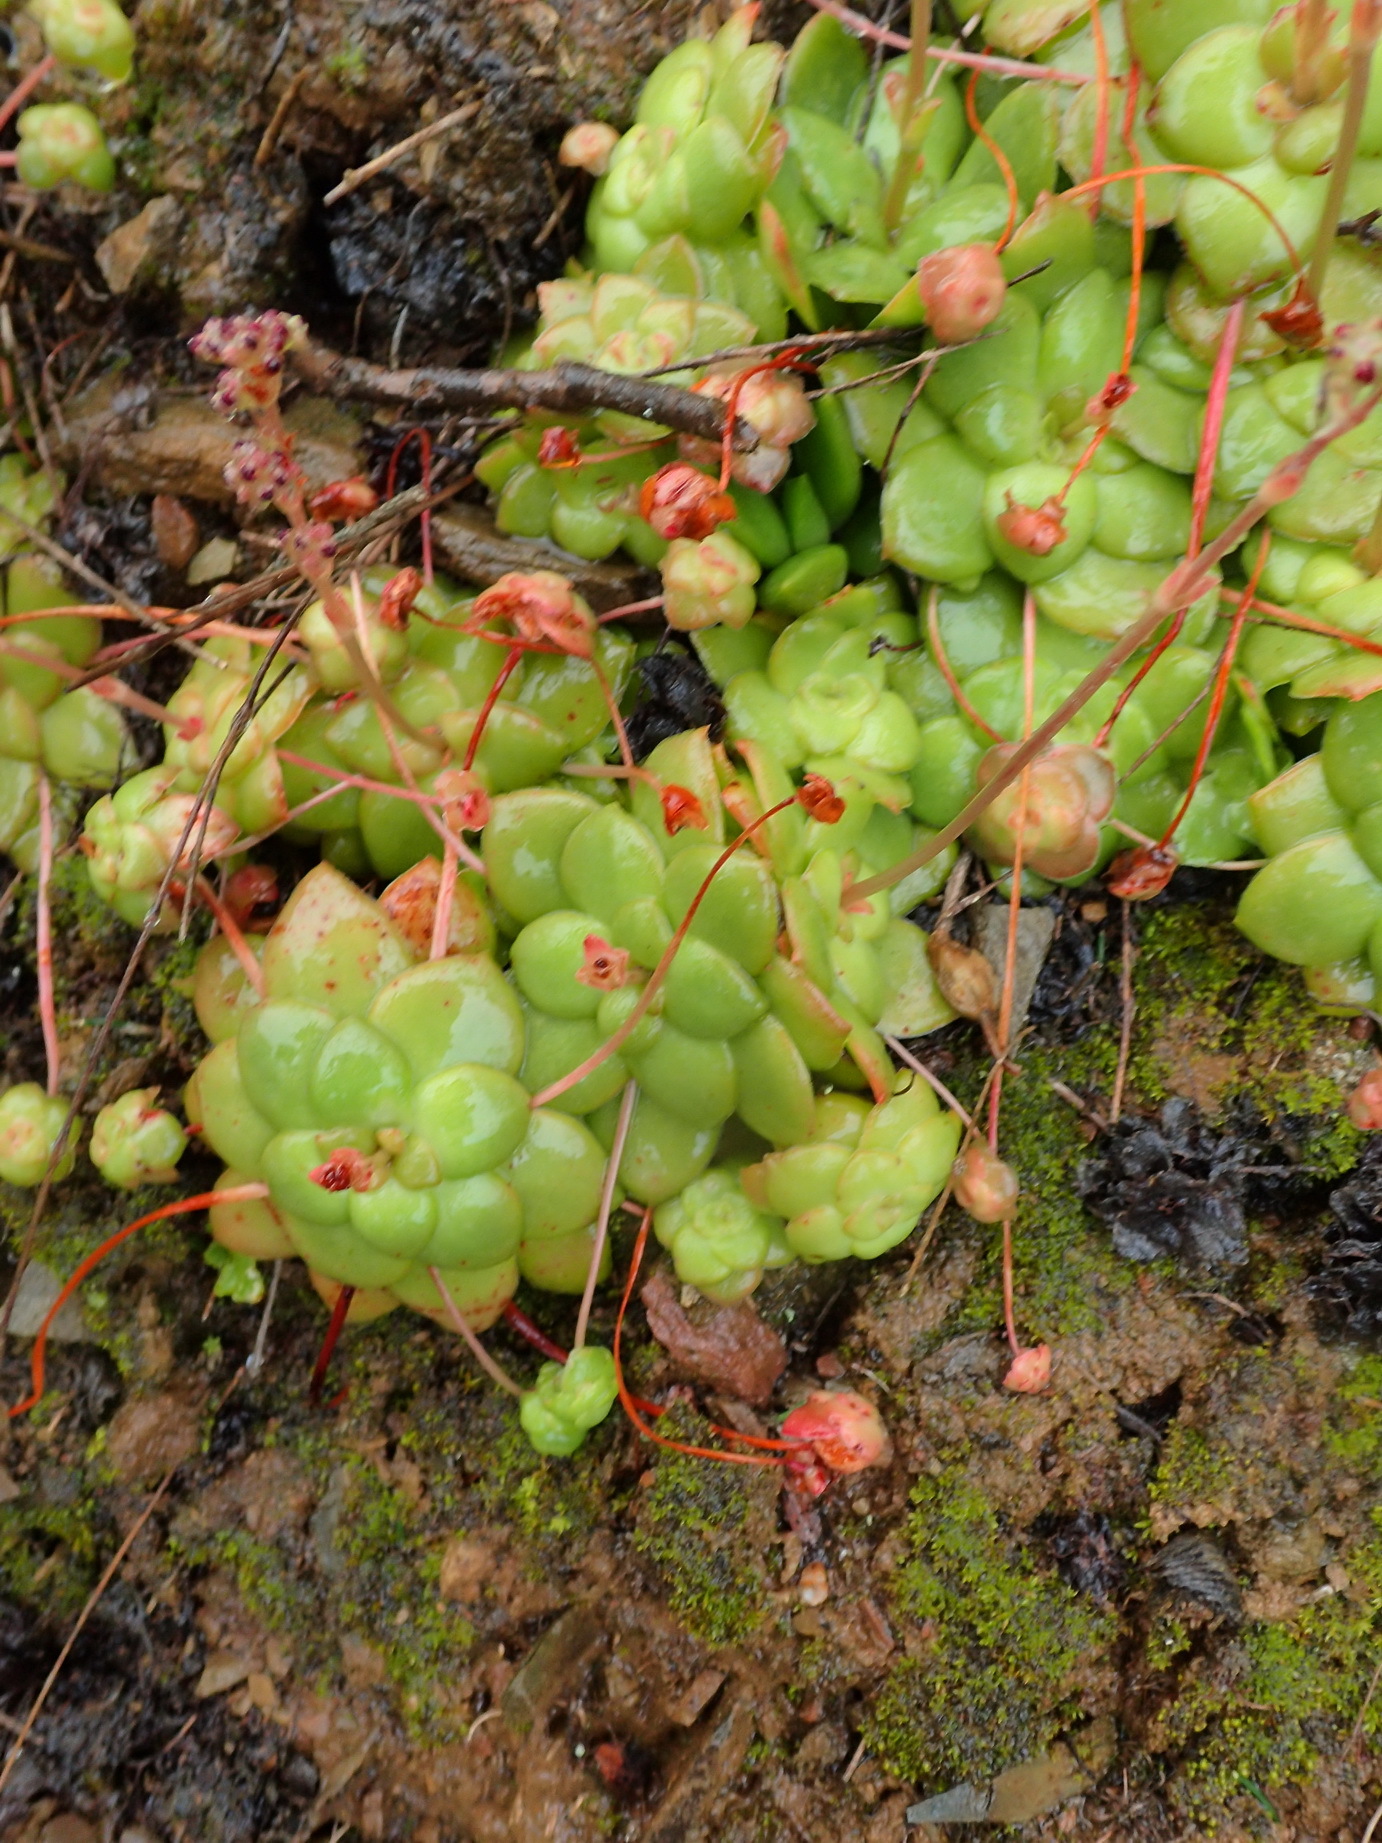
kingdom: Plantae
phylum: Tracheophyta
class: Magnoliopsida
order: Saxifragales
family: Crassulaceae
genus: Crassula
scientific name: Crassula orbicularis
